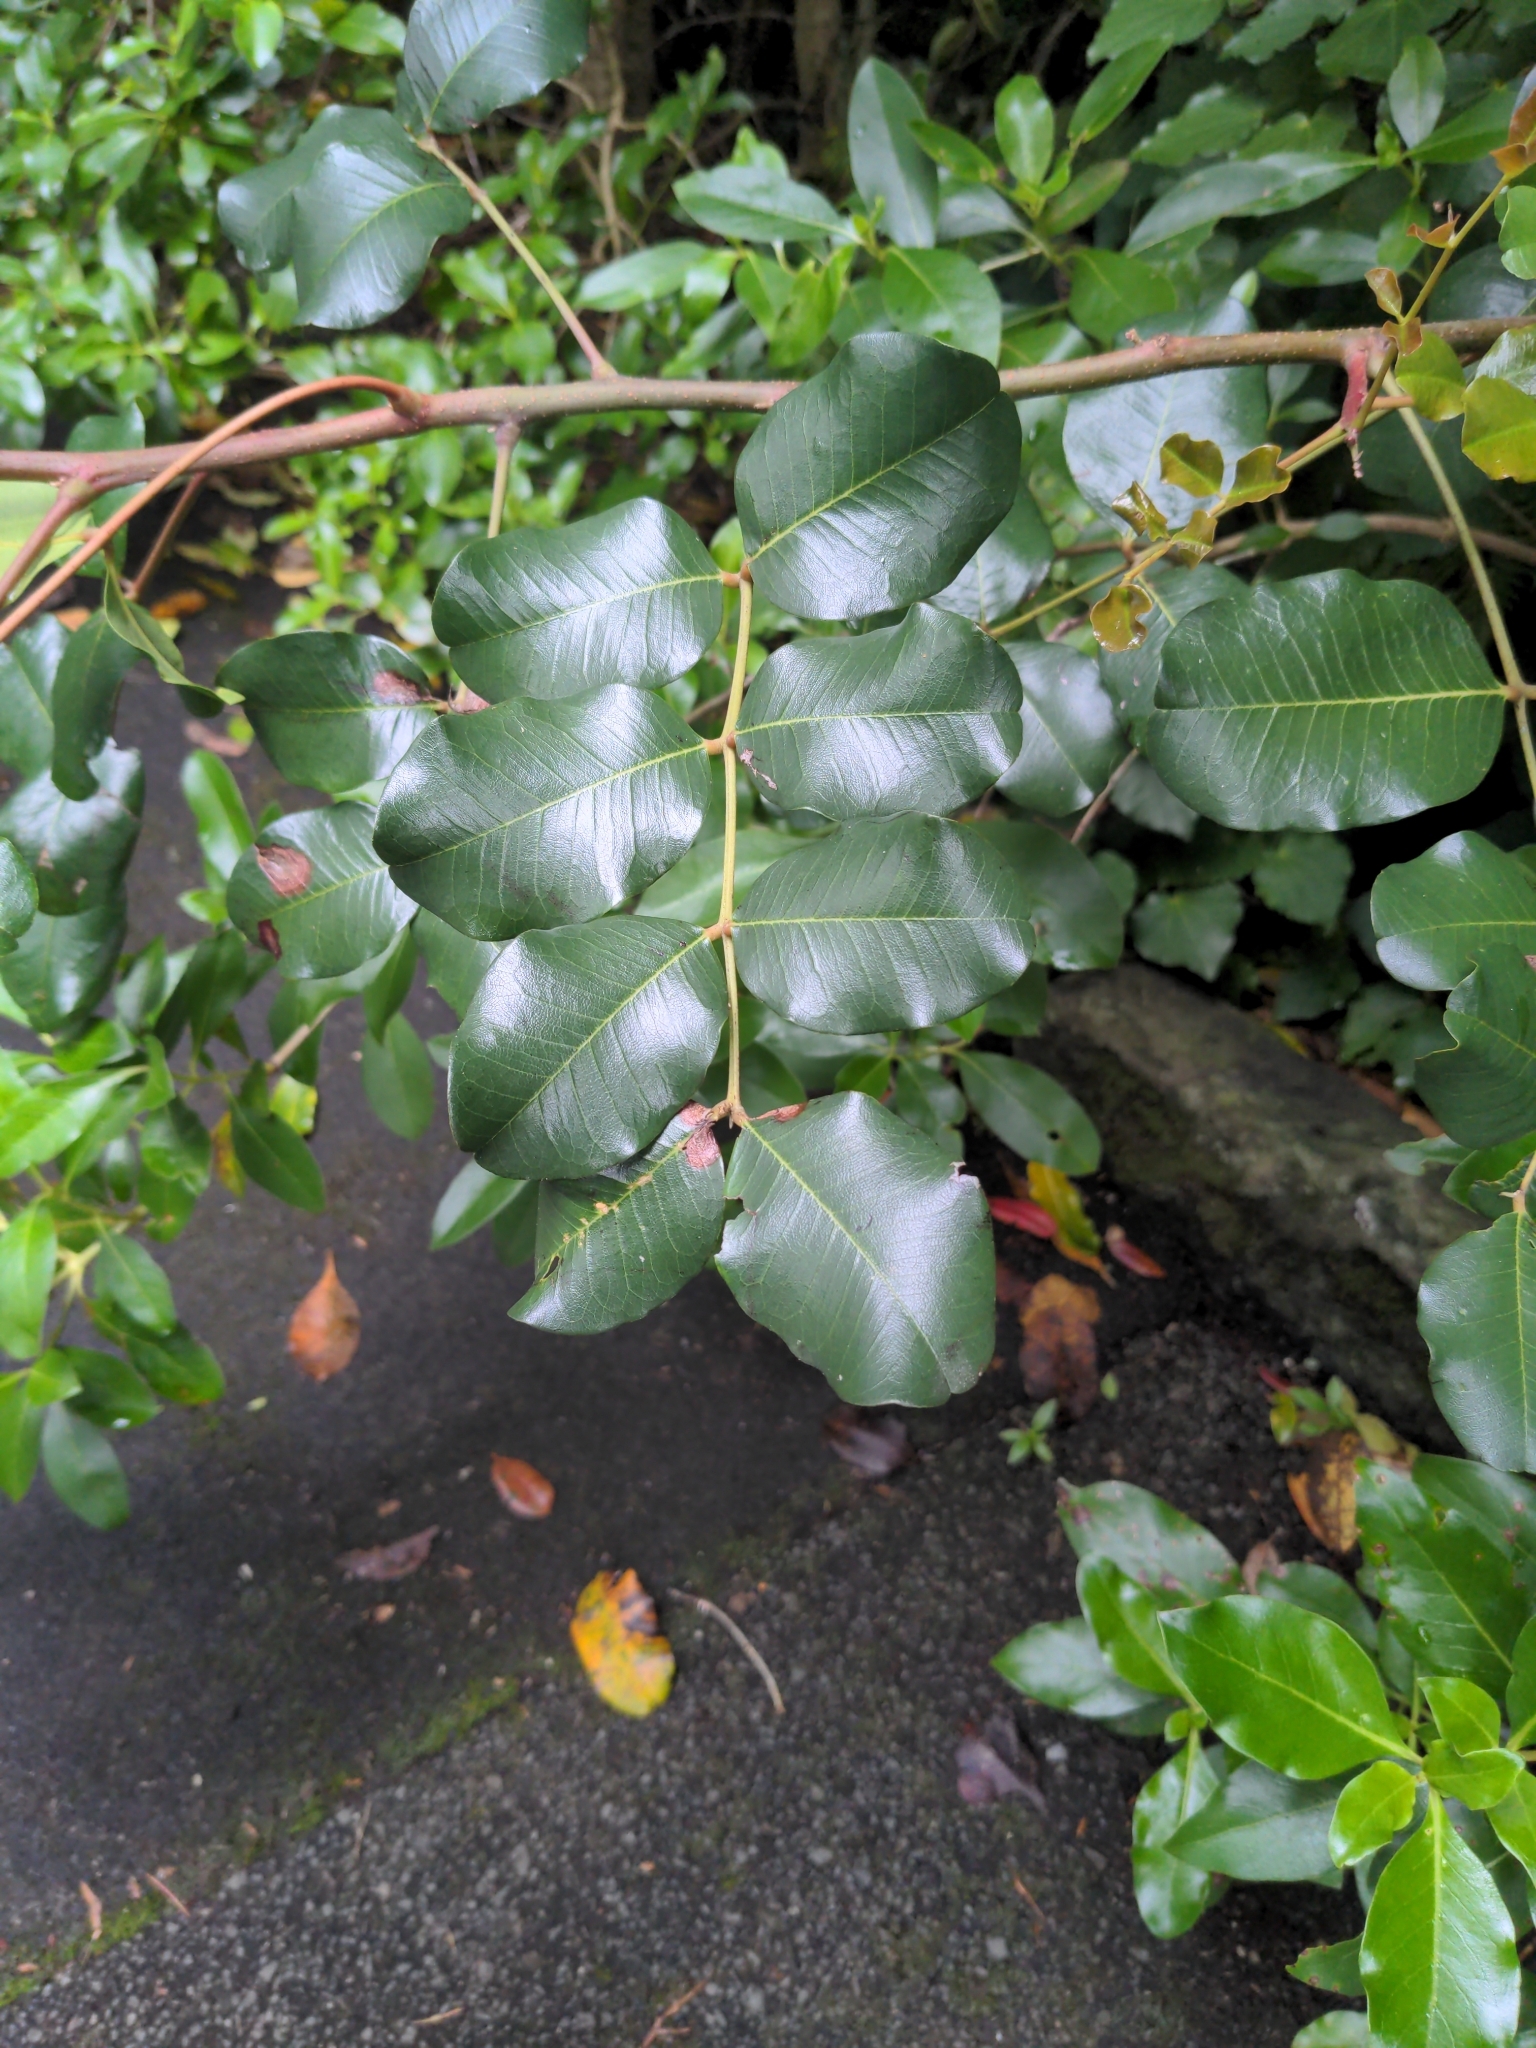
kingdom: Plantae
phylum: Tracheophyta
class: Magnoliopsida
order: Cucurbitales
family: Coriariaceae
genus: Coriaria
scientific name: Coriaria arborea
